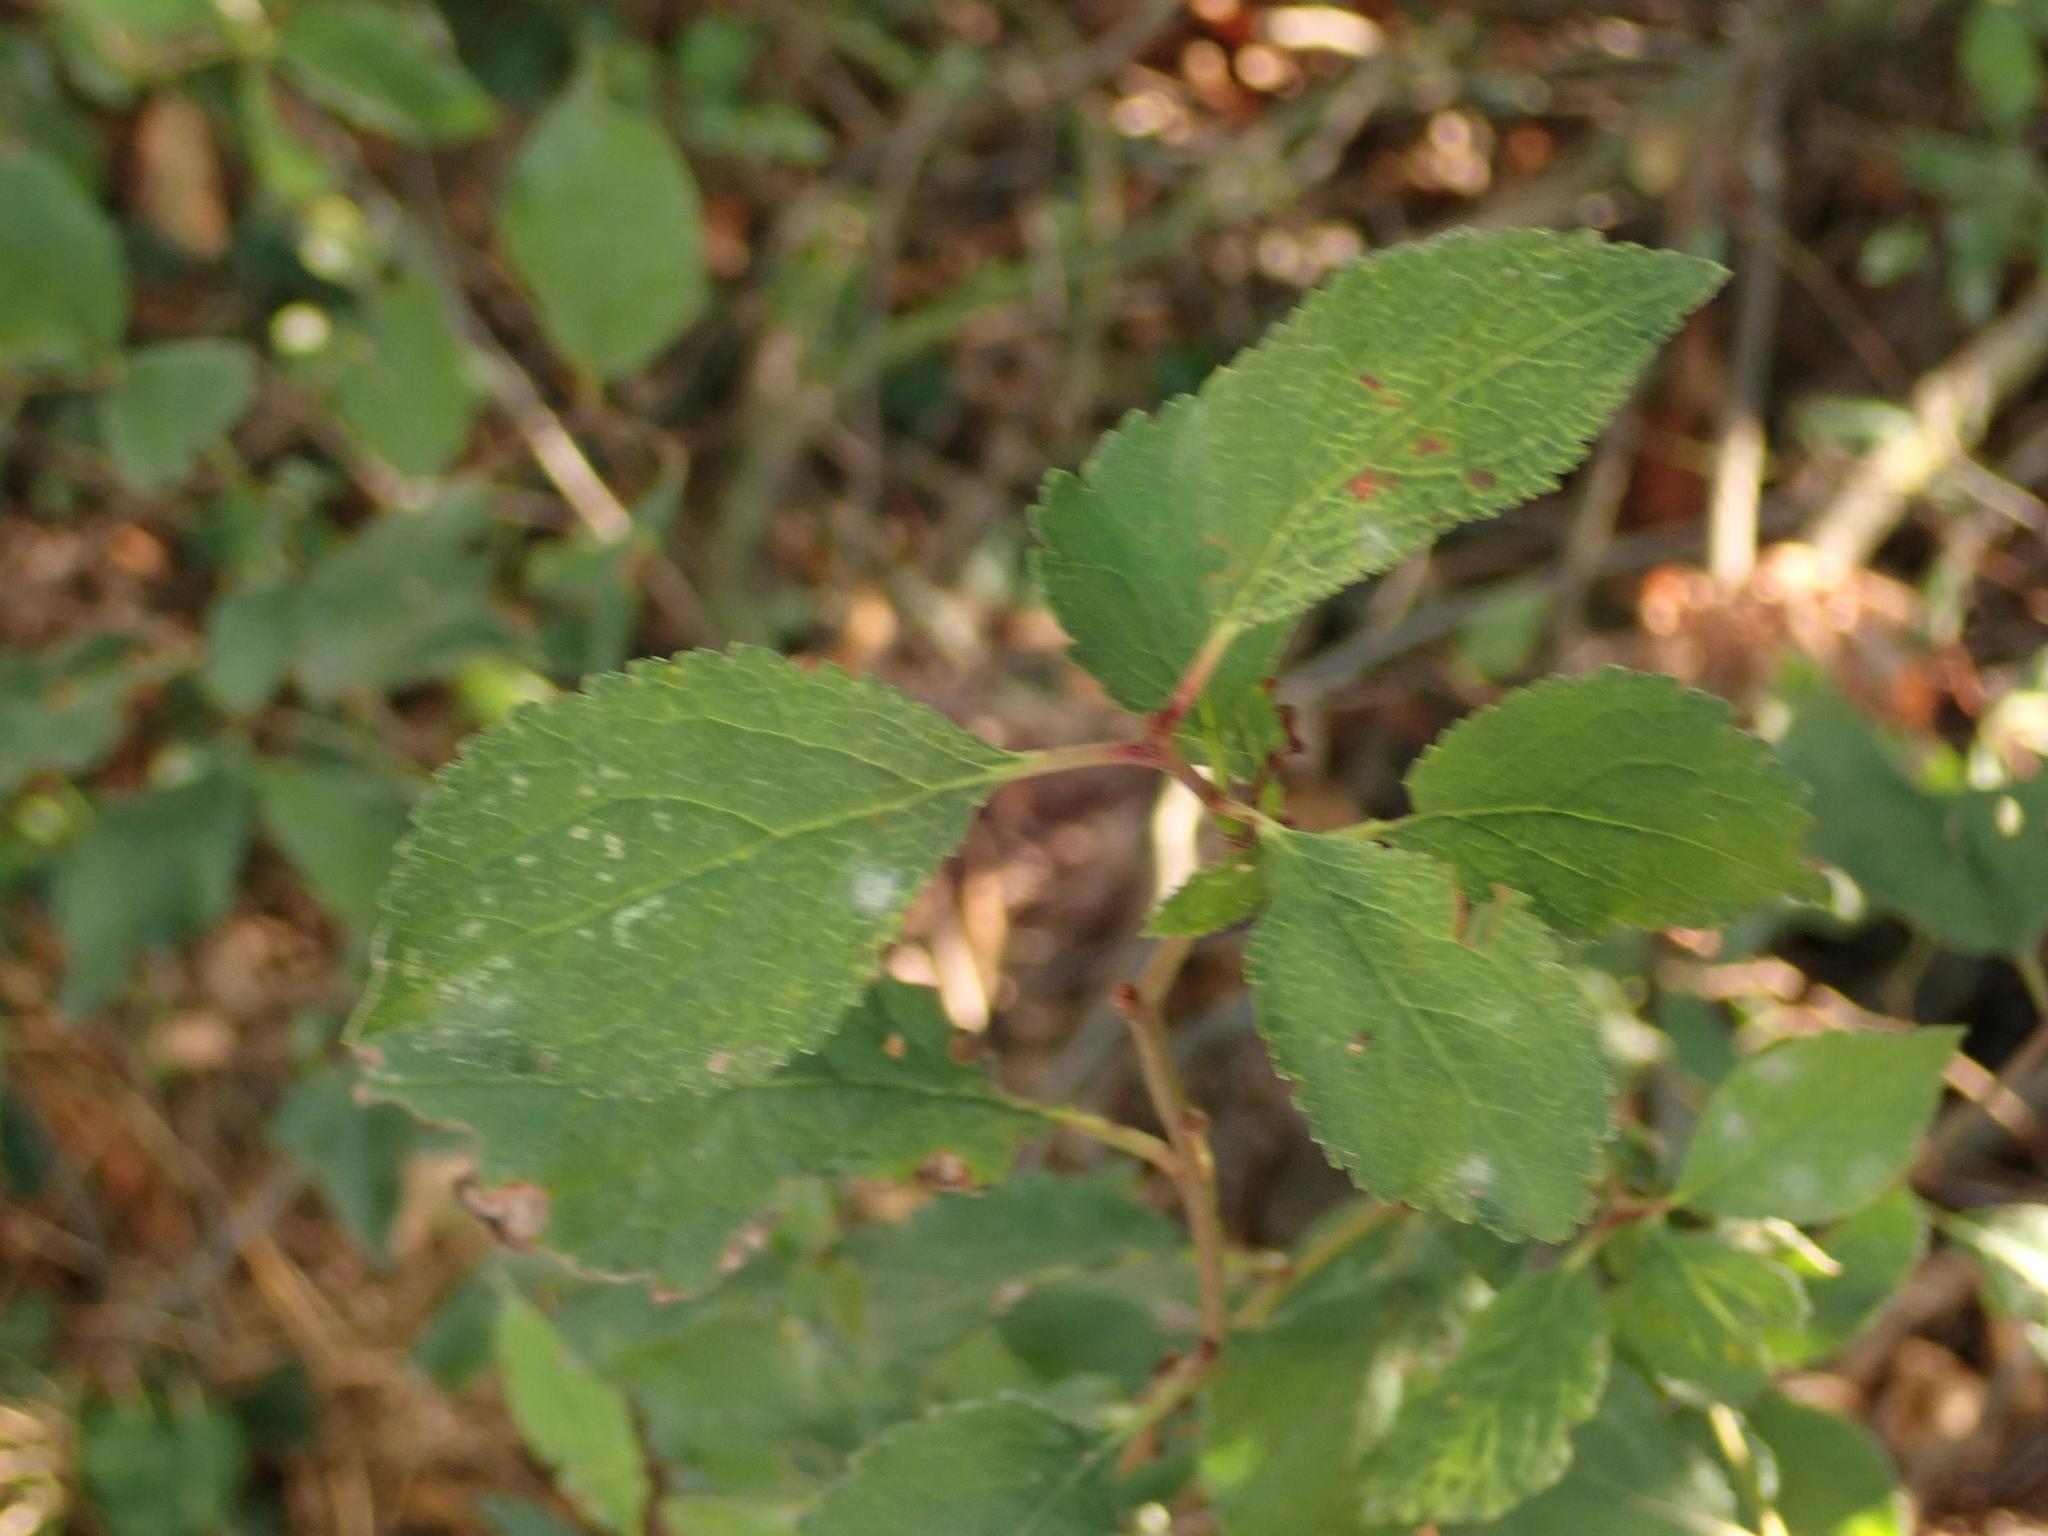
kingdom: Plantae
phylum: Tracheophyta
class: Magnoliopsida
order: Rosales
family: Rosaceae
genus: Prunus
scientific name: Prunus spinosa
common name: Blackthorn
